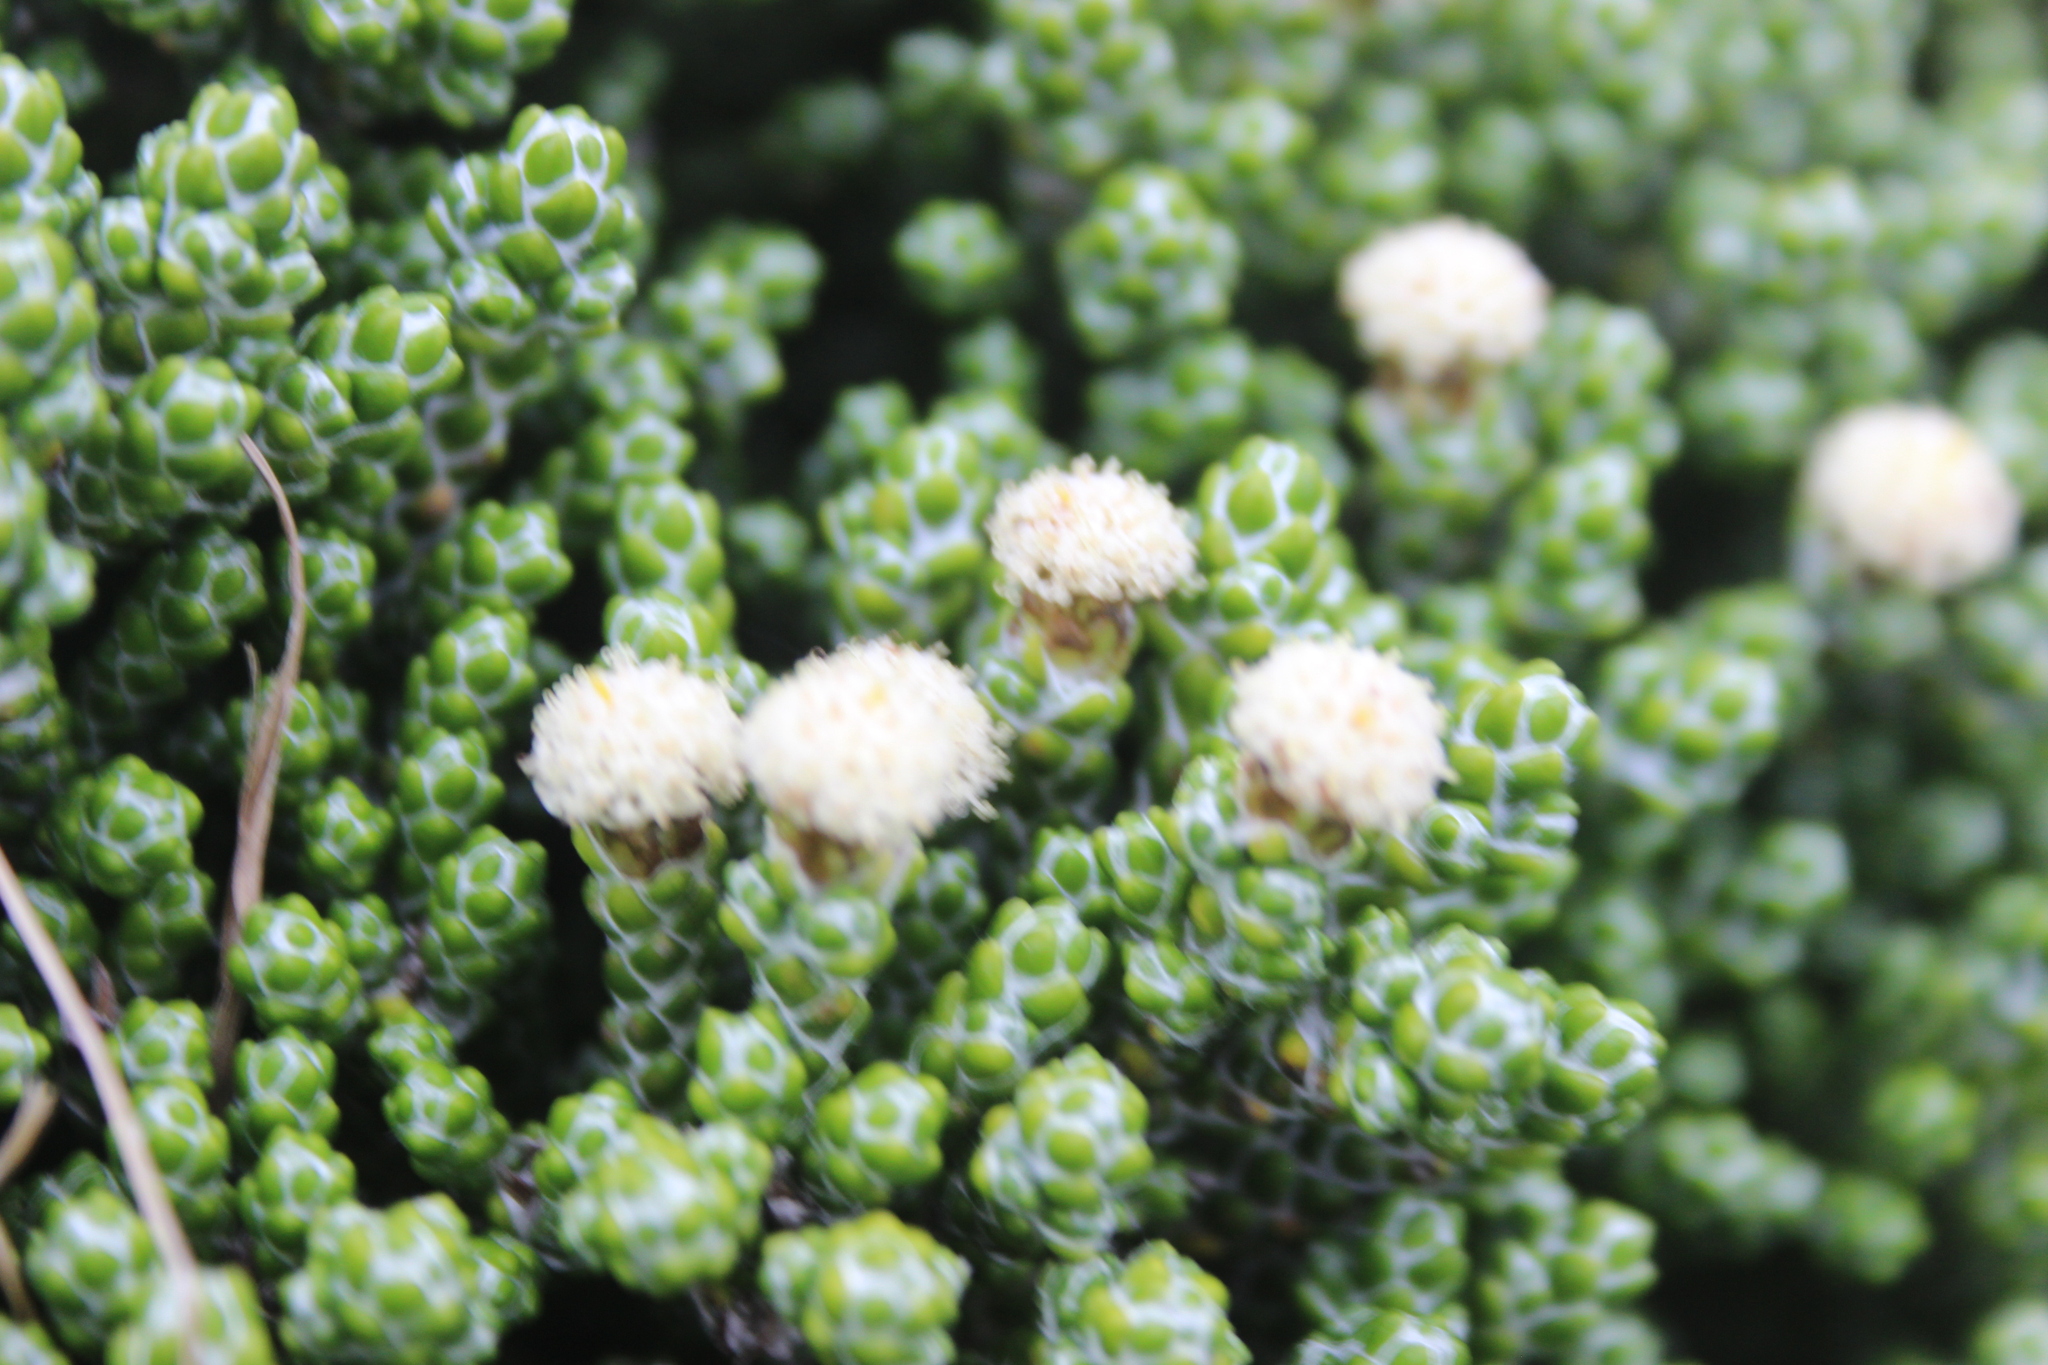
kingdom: Plantae
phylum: Tracheophyta
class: Magnoliopsida
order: Asterales
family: Asteraceae
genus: Ozothamnus
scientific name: Ozothamnus selago
